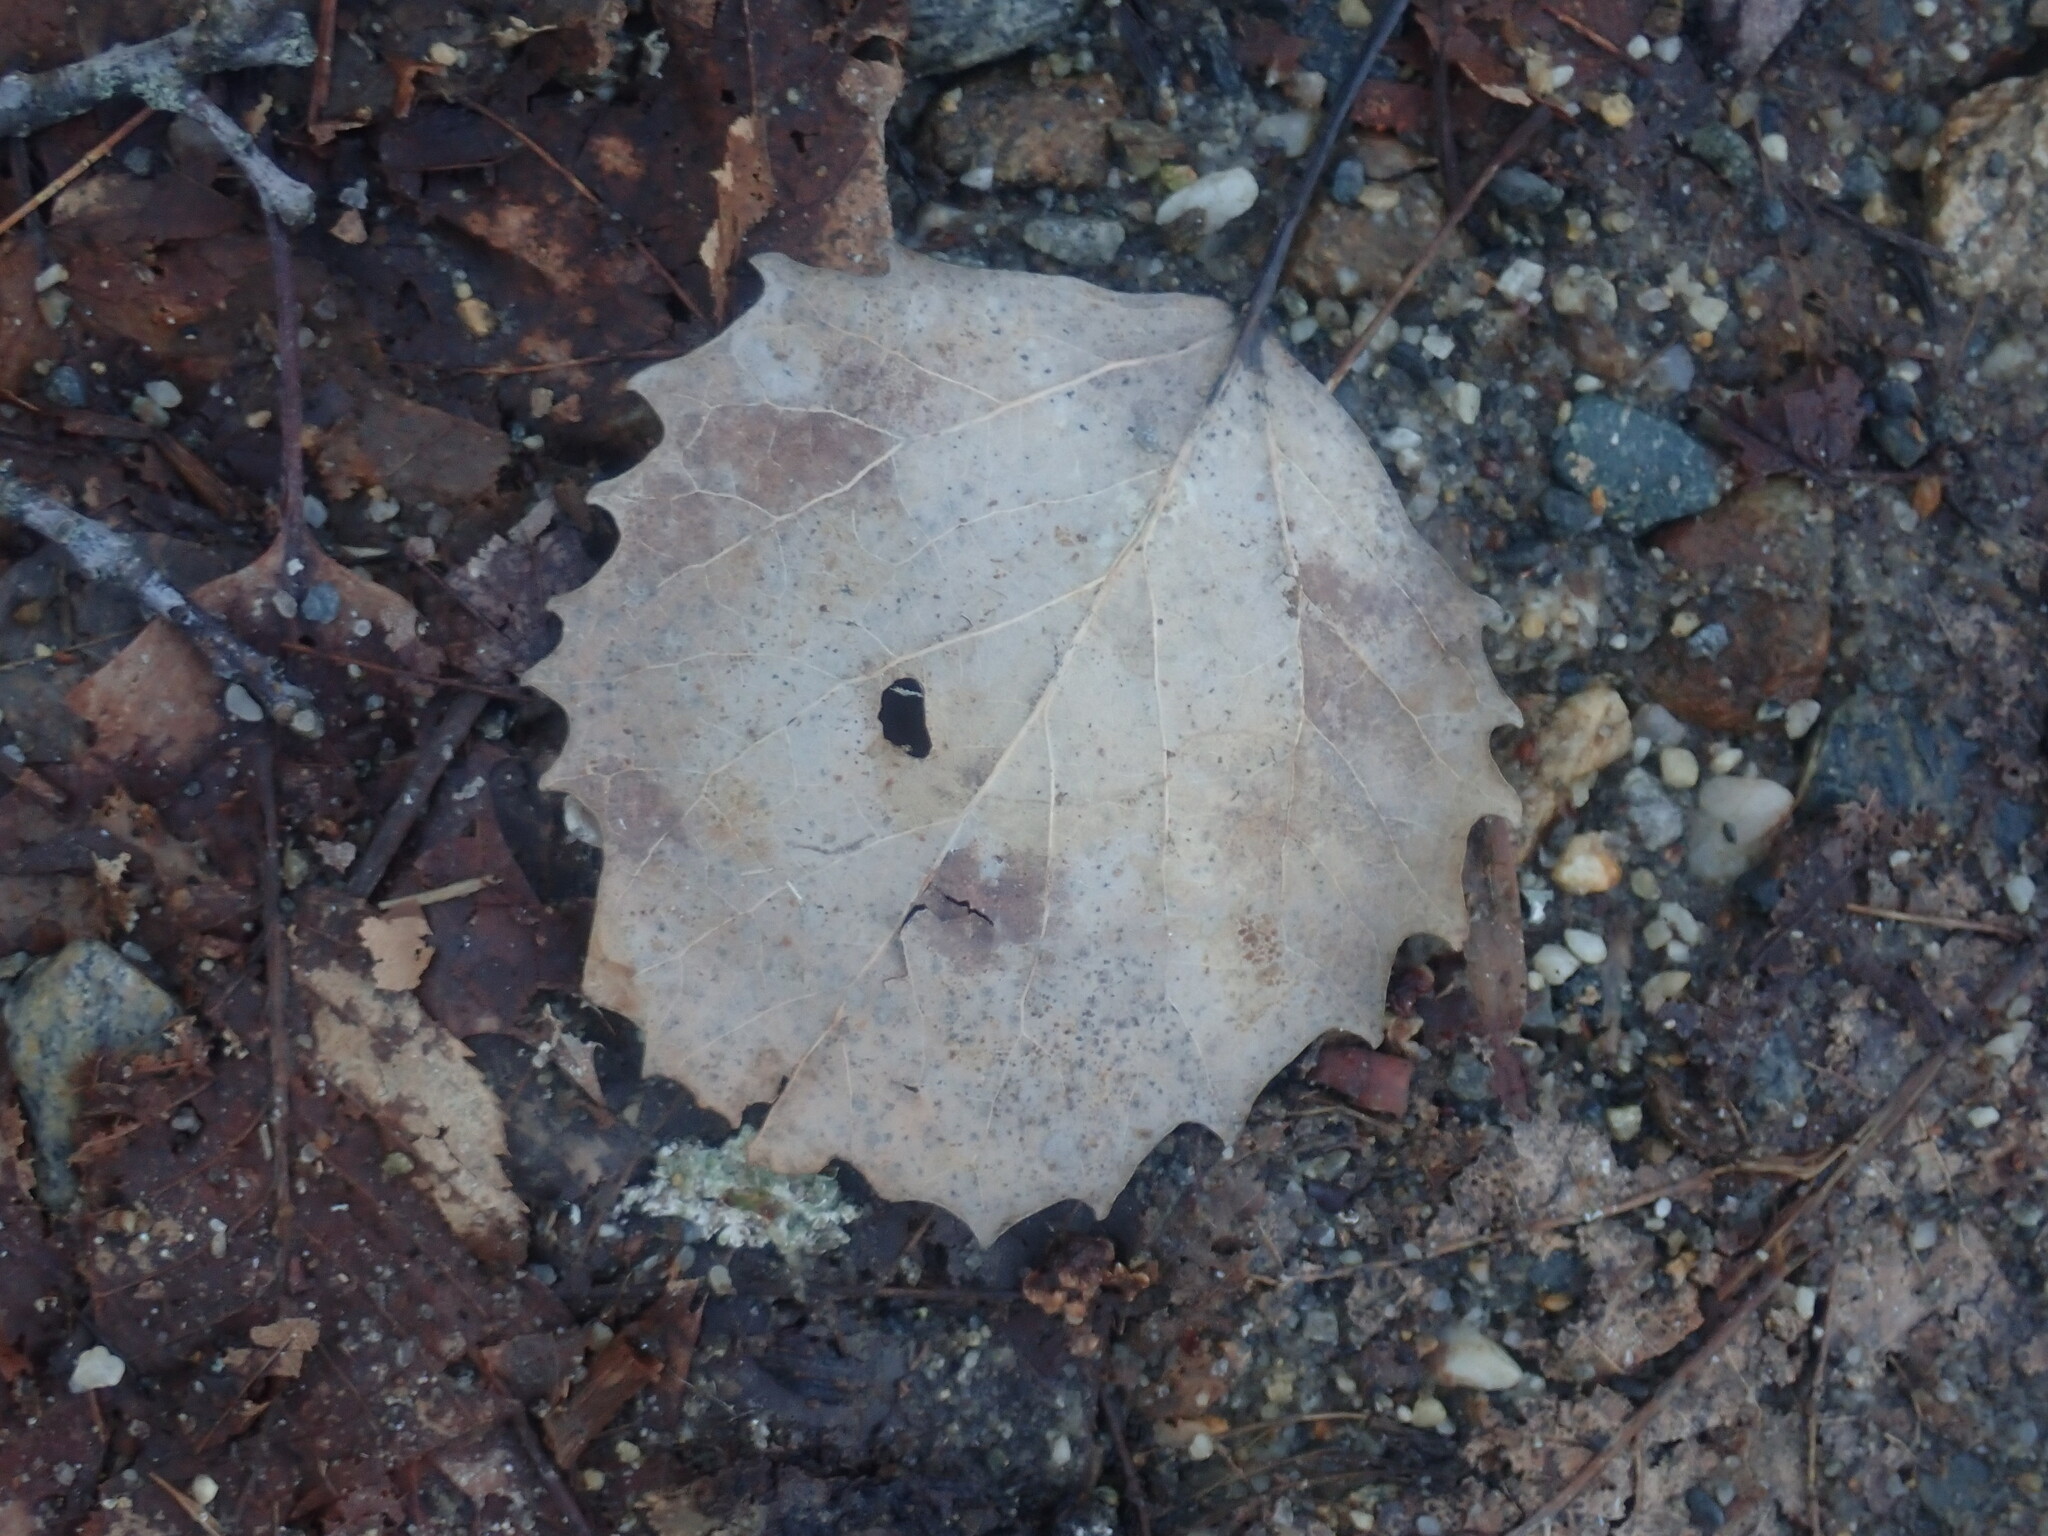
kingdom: Plantae
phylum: Tracheophyta
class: Magnoliopsida
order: Malpighiales
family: Salicaceae
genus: Populus
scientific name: Populus grandidentata
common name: Bigtooth aspen
